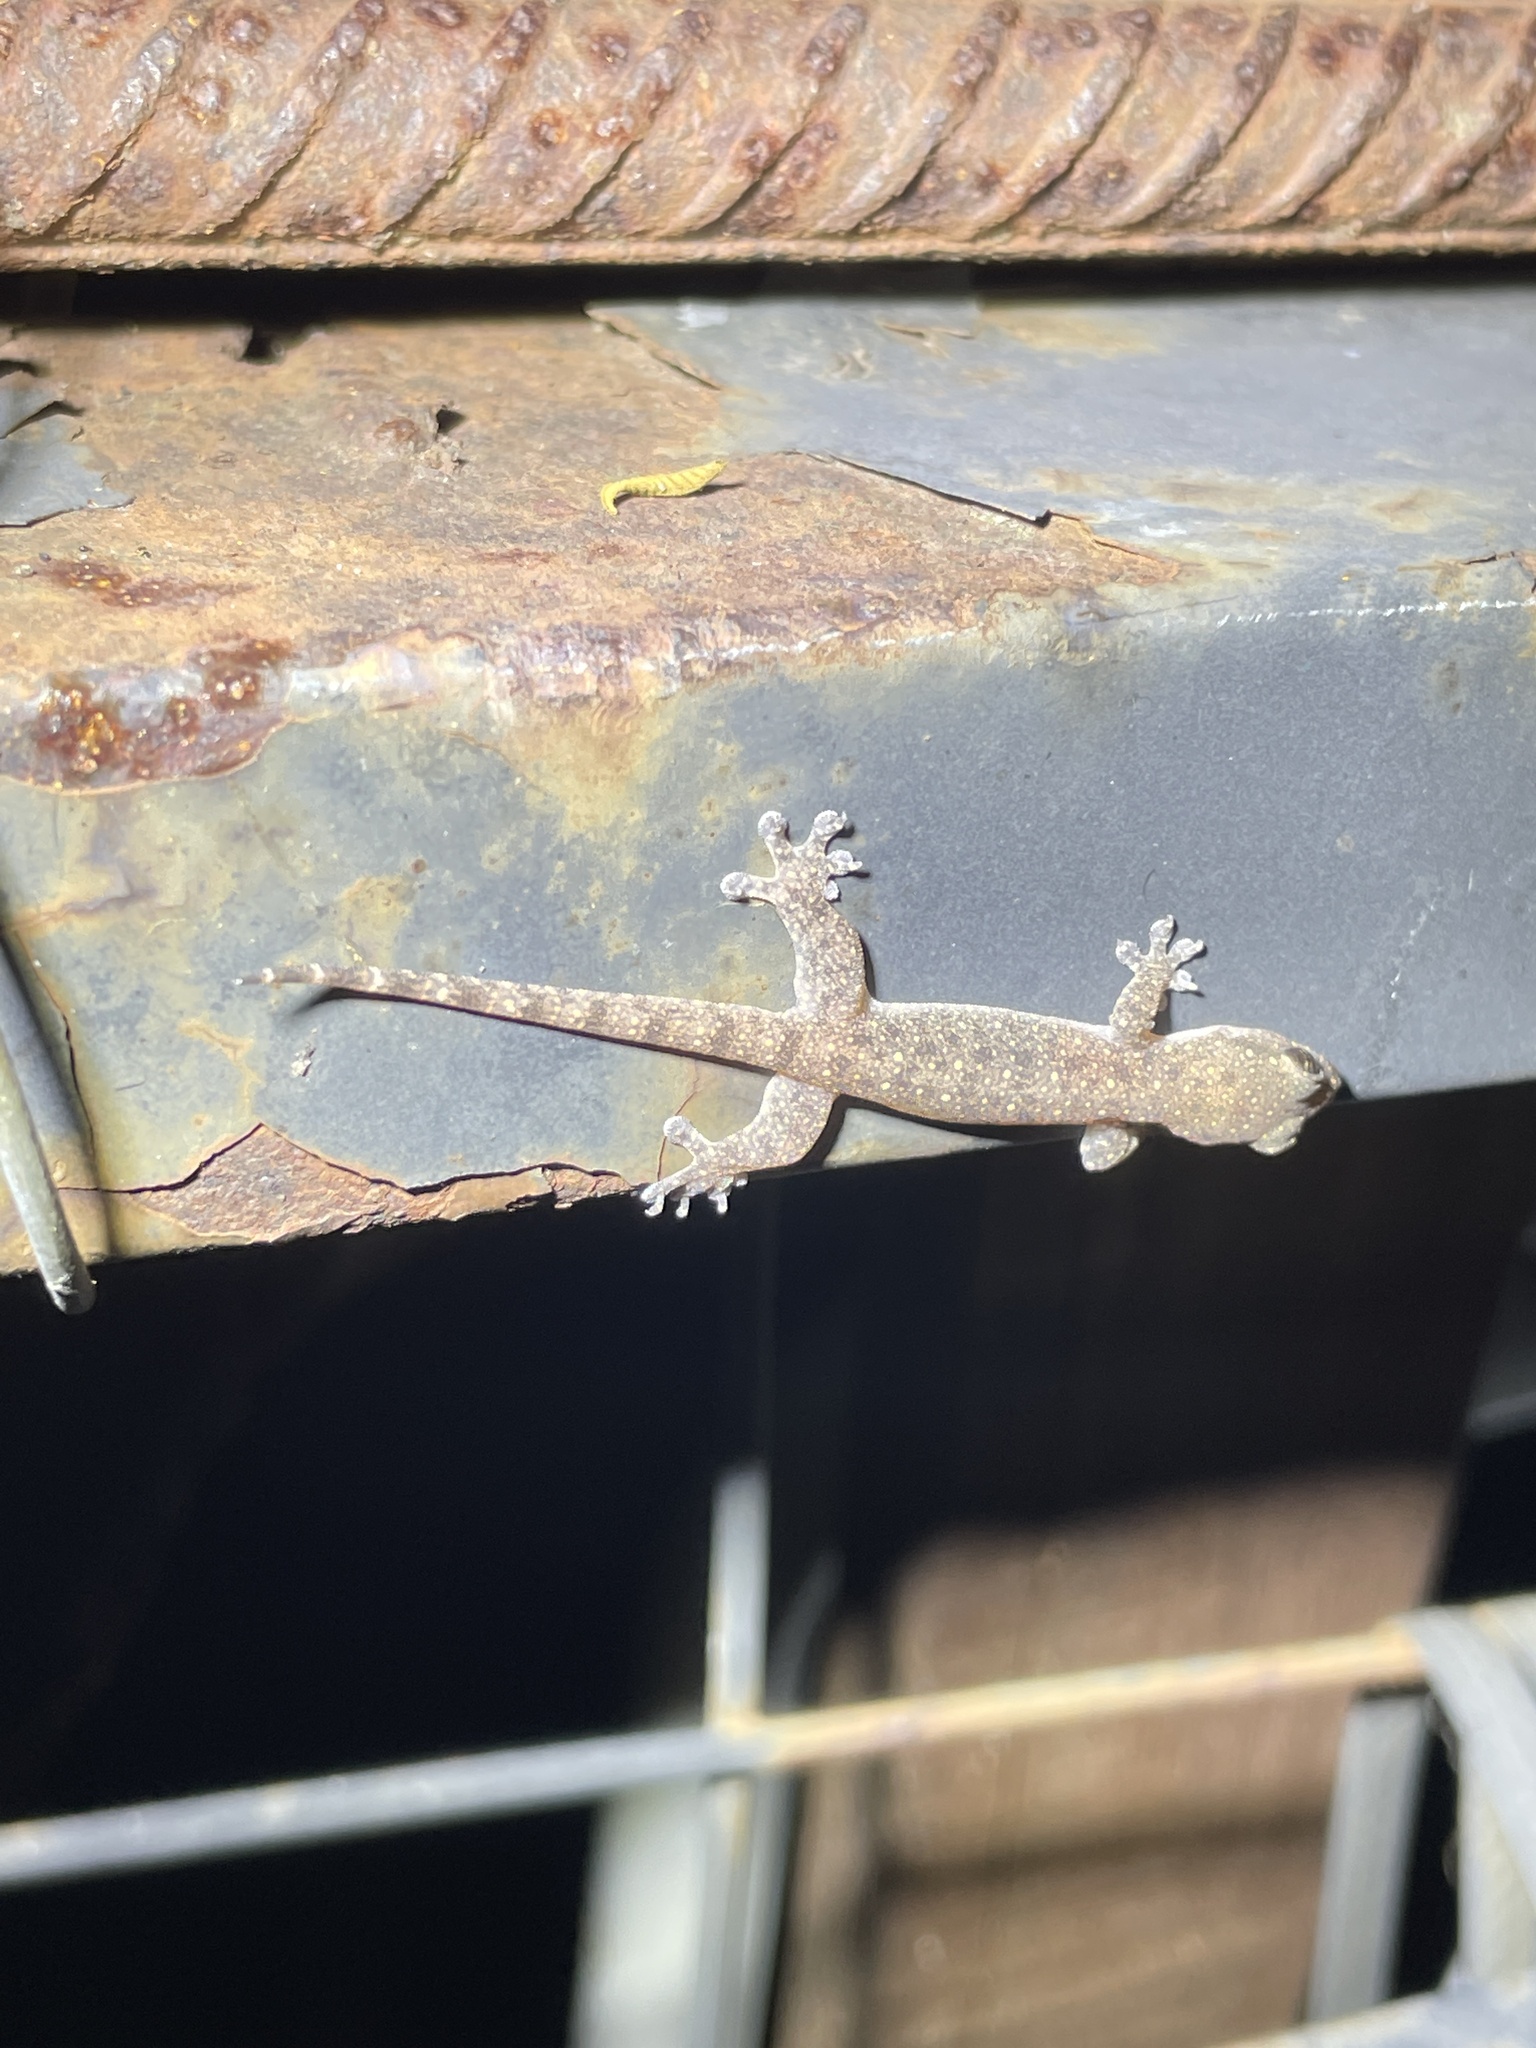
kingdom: Animalia
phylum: Chordata
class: Squamata
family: Gekkonidae
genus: Gehyra
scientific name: Gehyra mutilata
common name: Stump-toed gecko
